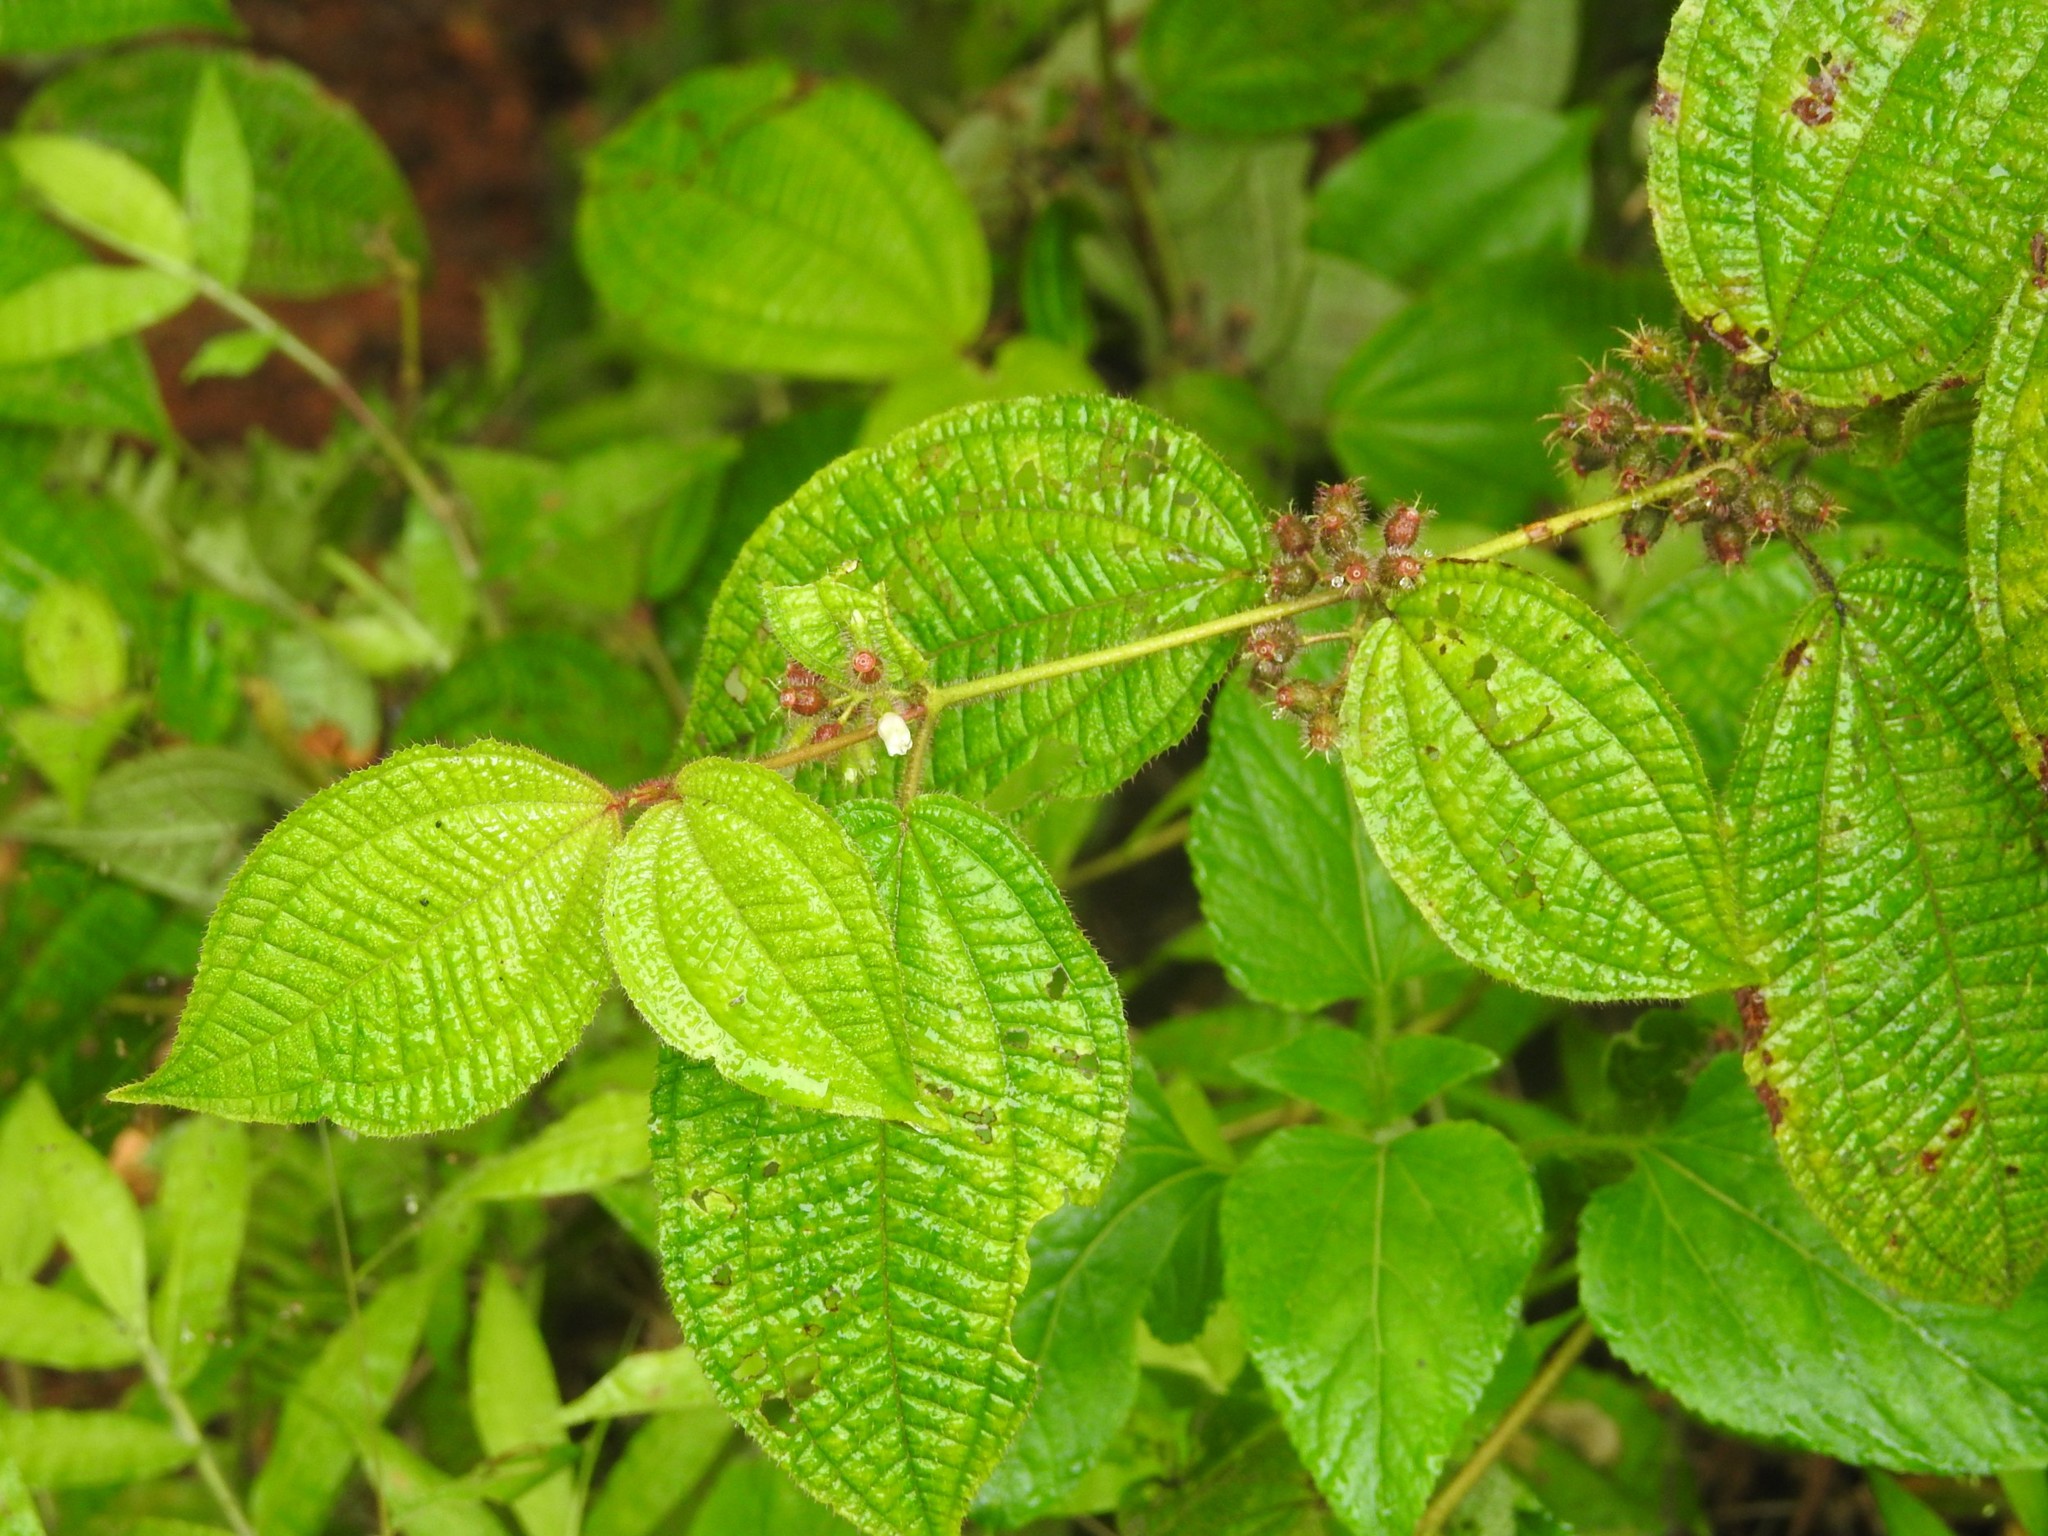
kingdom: Plantae
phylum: Tracheophyta
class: Magnoliopsida
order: Myrtales
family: Melastomataceae
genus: Miconia
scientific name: Miconia crenata
